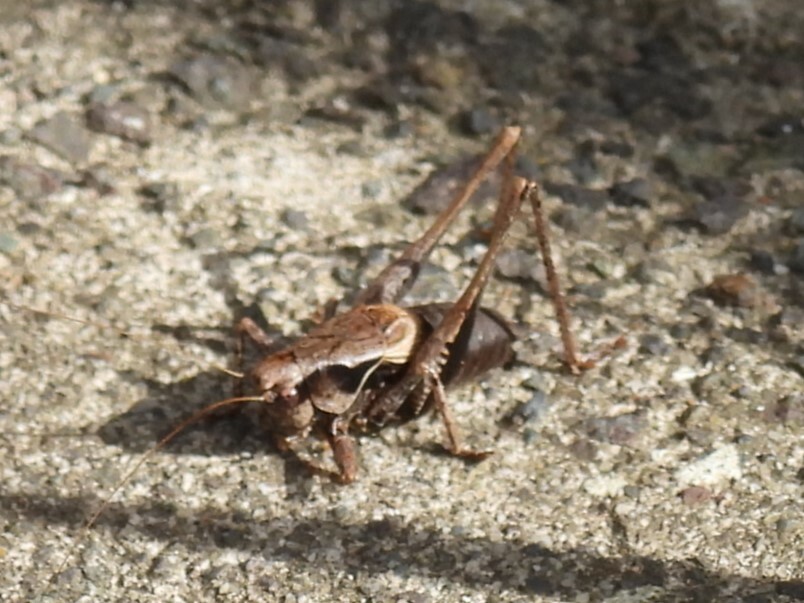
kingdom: Animalia
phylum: Arthropoda
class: Insecta
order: Orthoptera
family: Tettigoniidae
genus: Pholidoptera
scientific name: Pholidoptera griseoaptera
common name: Dark bush-cricket
